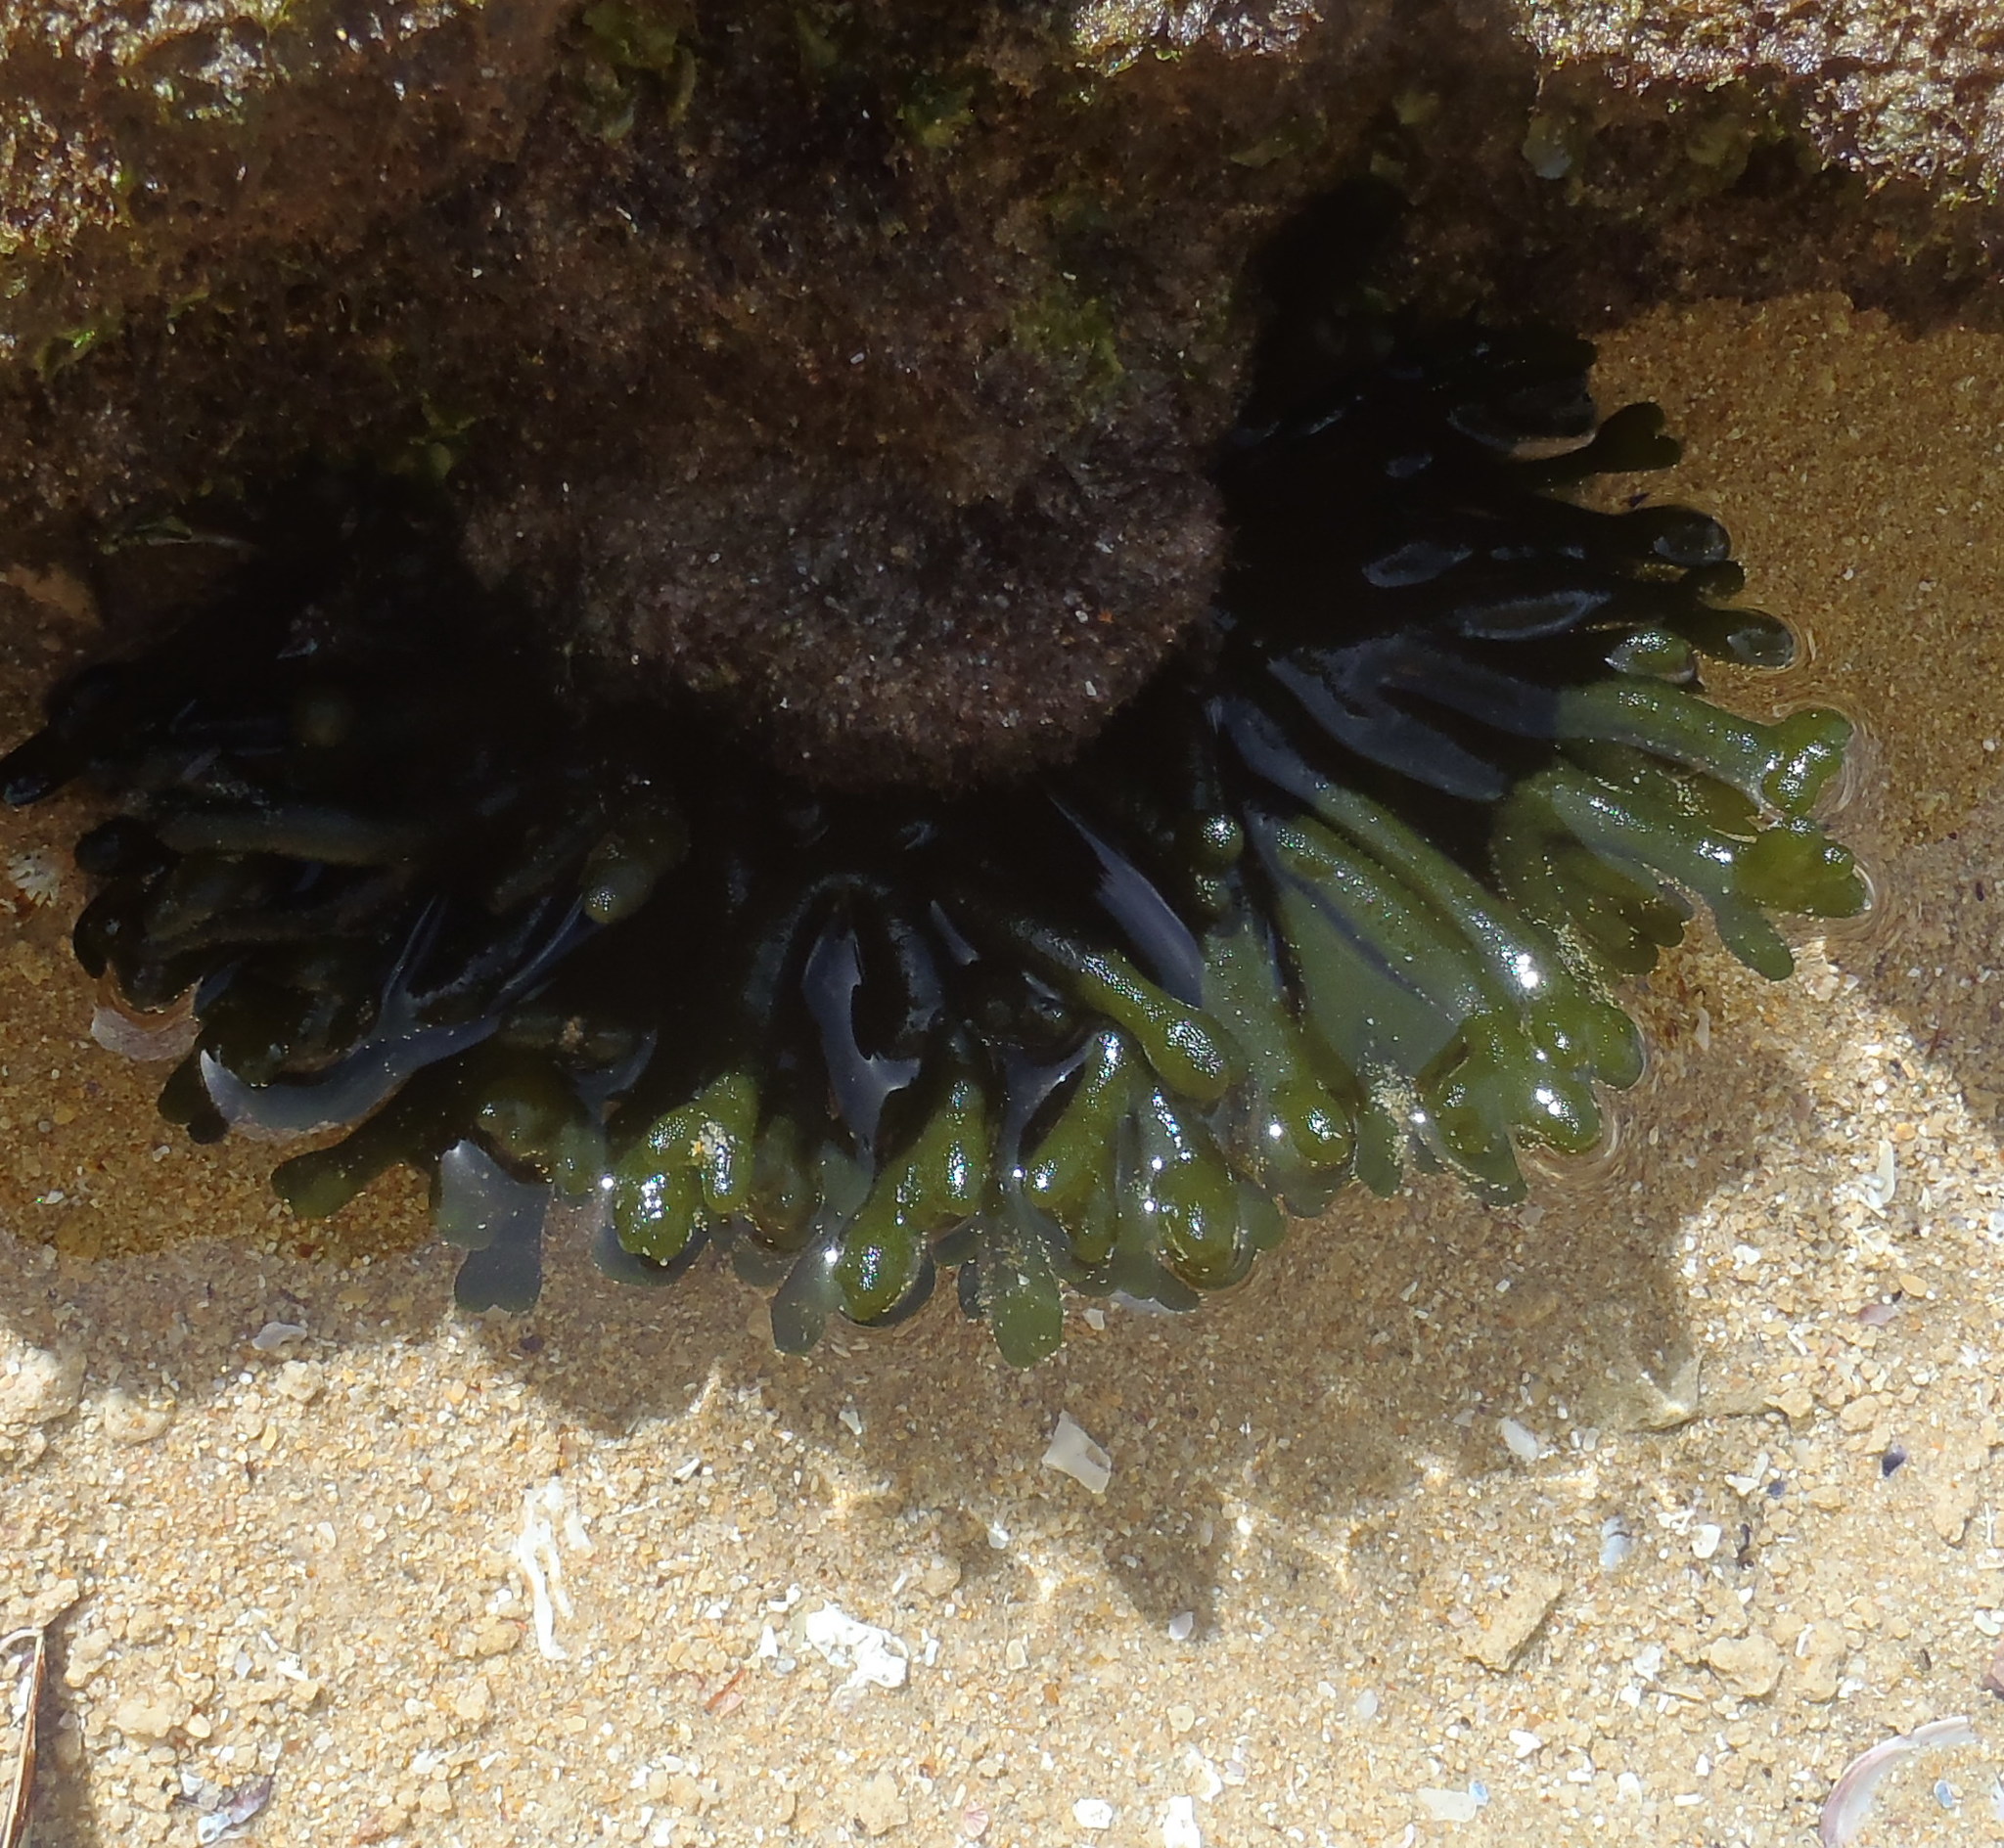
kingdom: Plantae
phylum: Chlorophyta
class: Ulvophyceae
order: Bryopsidales
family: Codiaceae
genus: Codium
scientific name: Codium fragile
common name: Dead man's fingers
